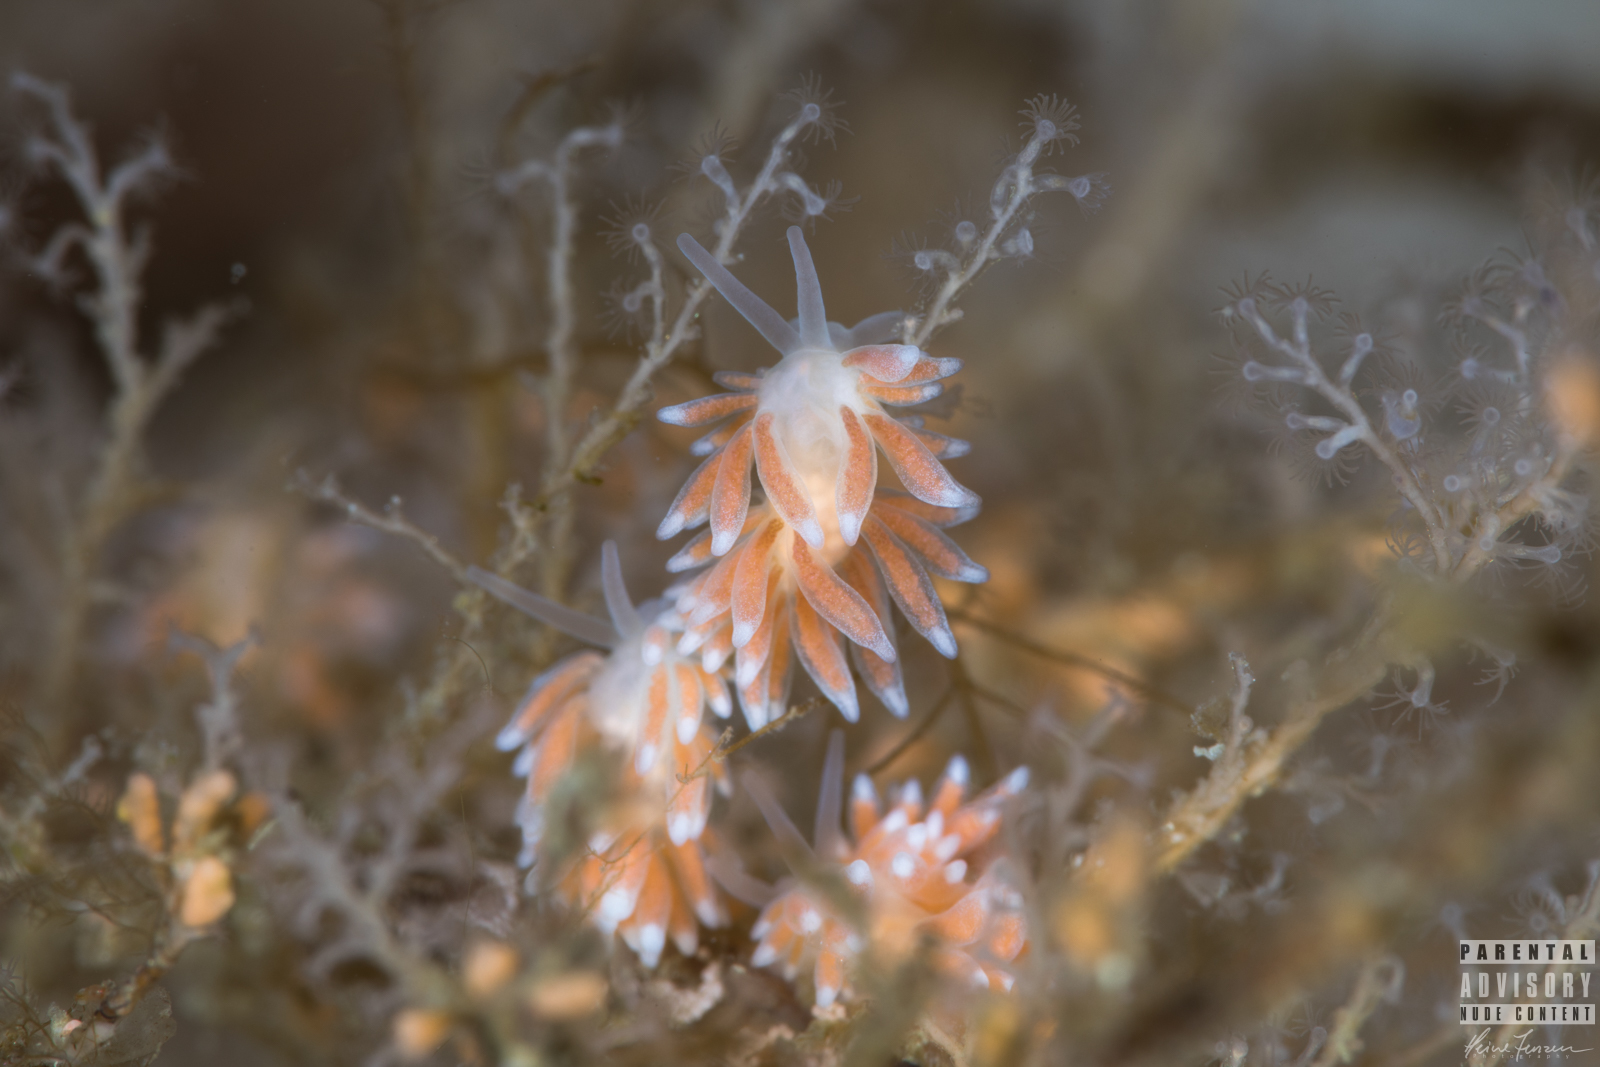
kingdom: Animalia
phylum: Mollusca
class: Gastropoda
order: Nudibranchia
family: Trinchesiidae
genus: Catriona
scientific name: Catriona aurantia
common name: Corange-tip cuthona
